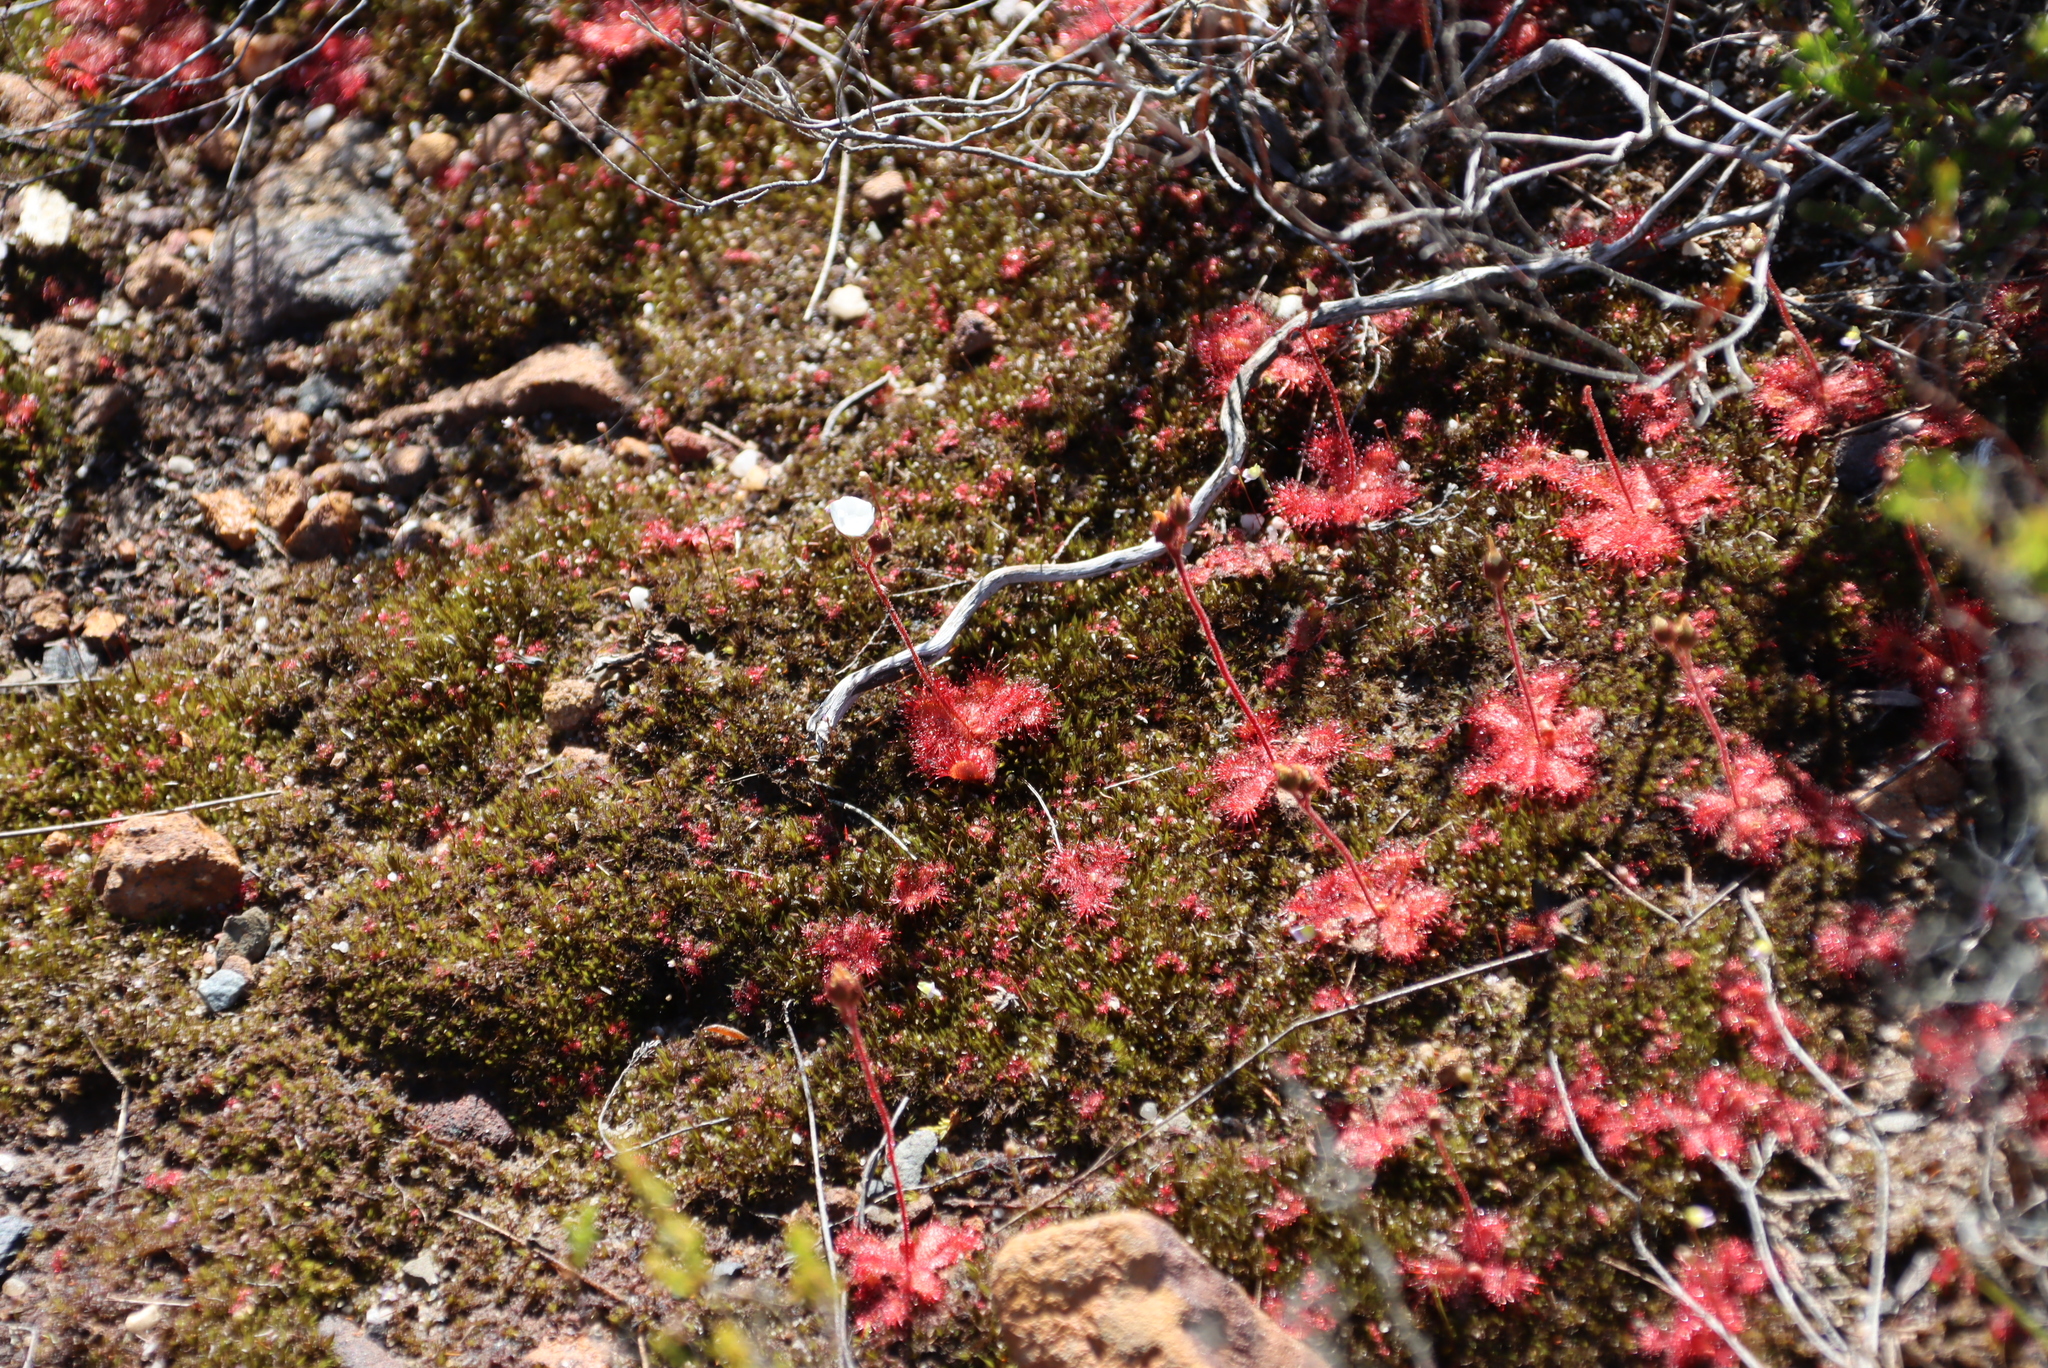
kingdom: Plantae
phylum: Tracheophyta
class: Magnoliopsida
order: Caryophyllales
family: Droseraceae
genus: Drosera
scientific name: Drosera trinervia
